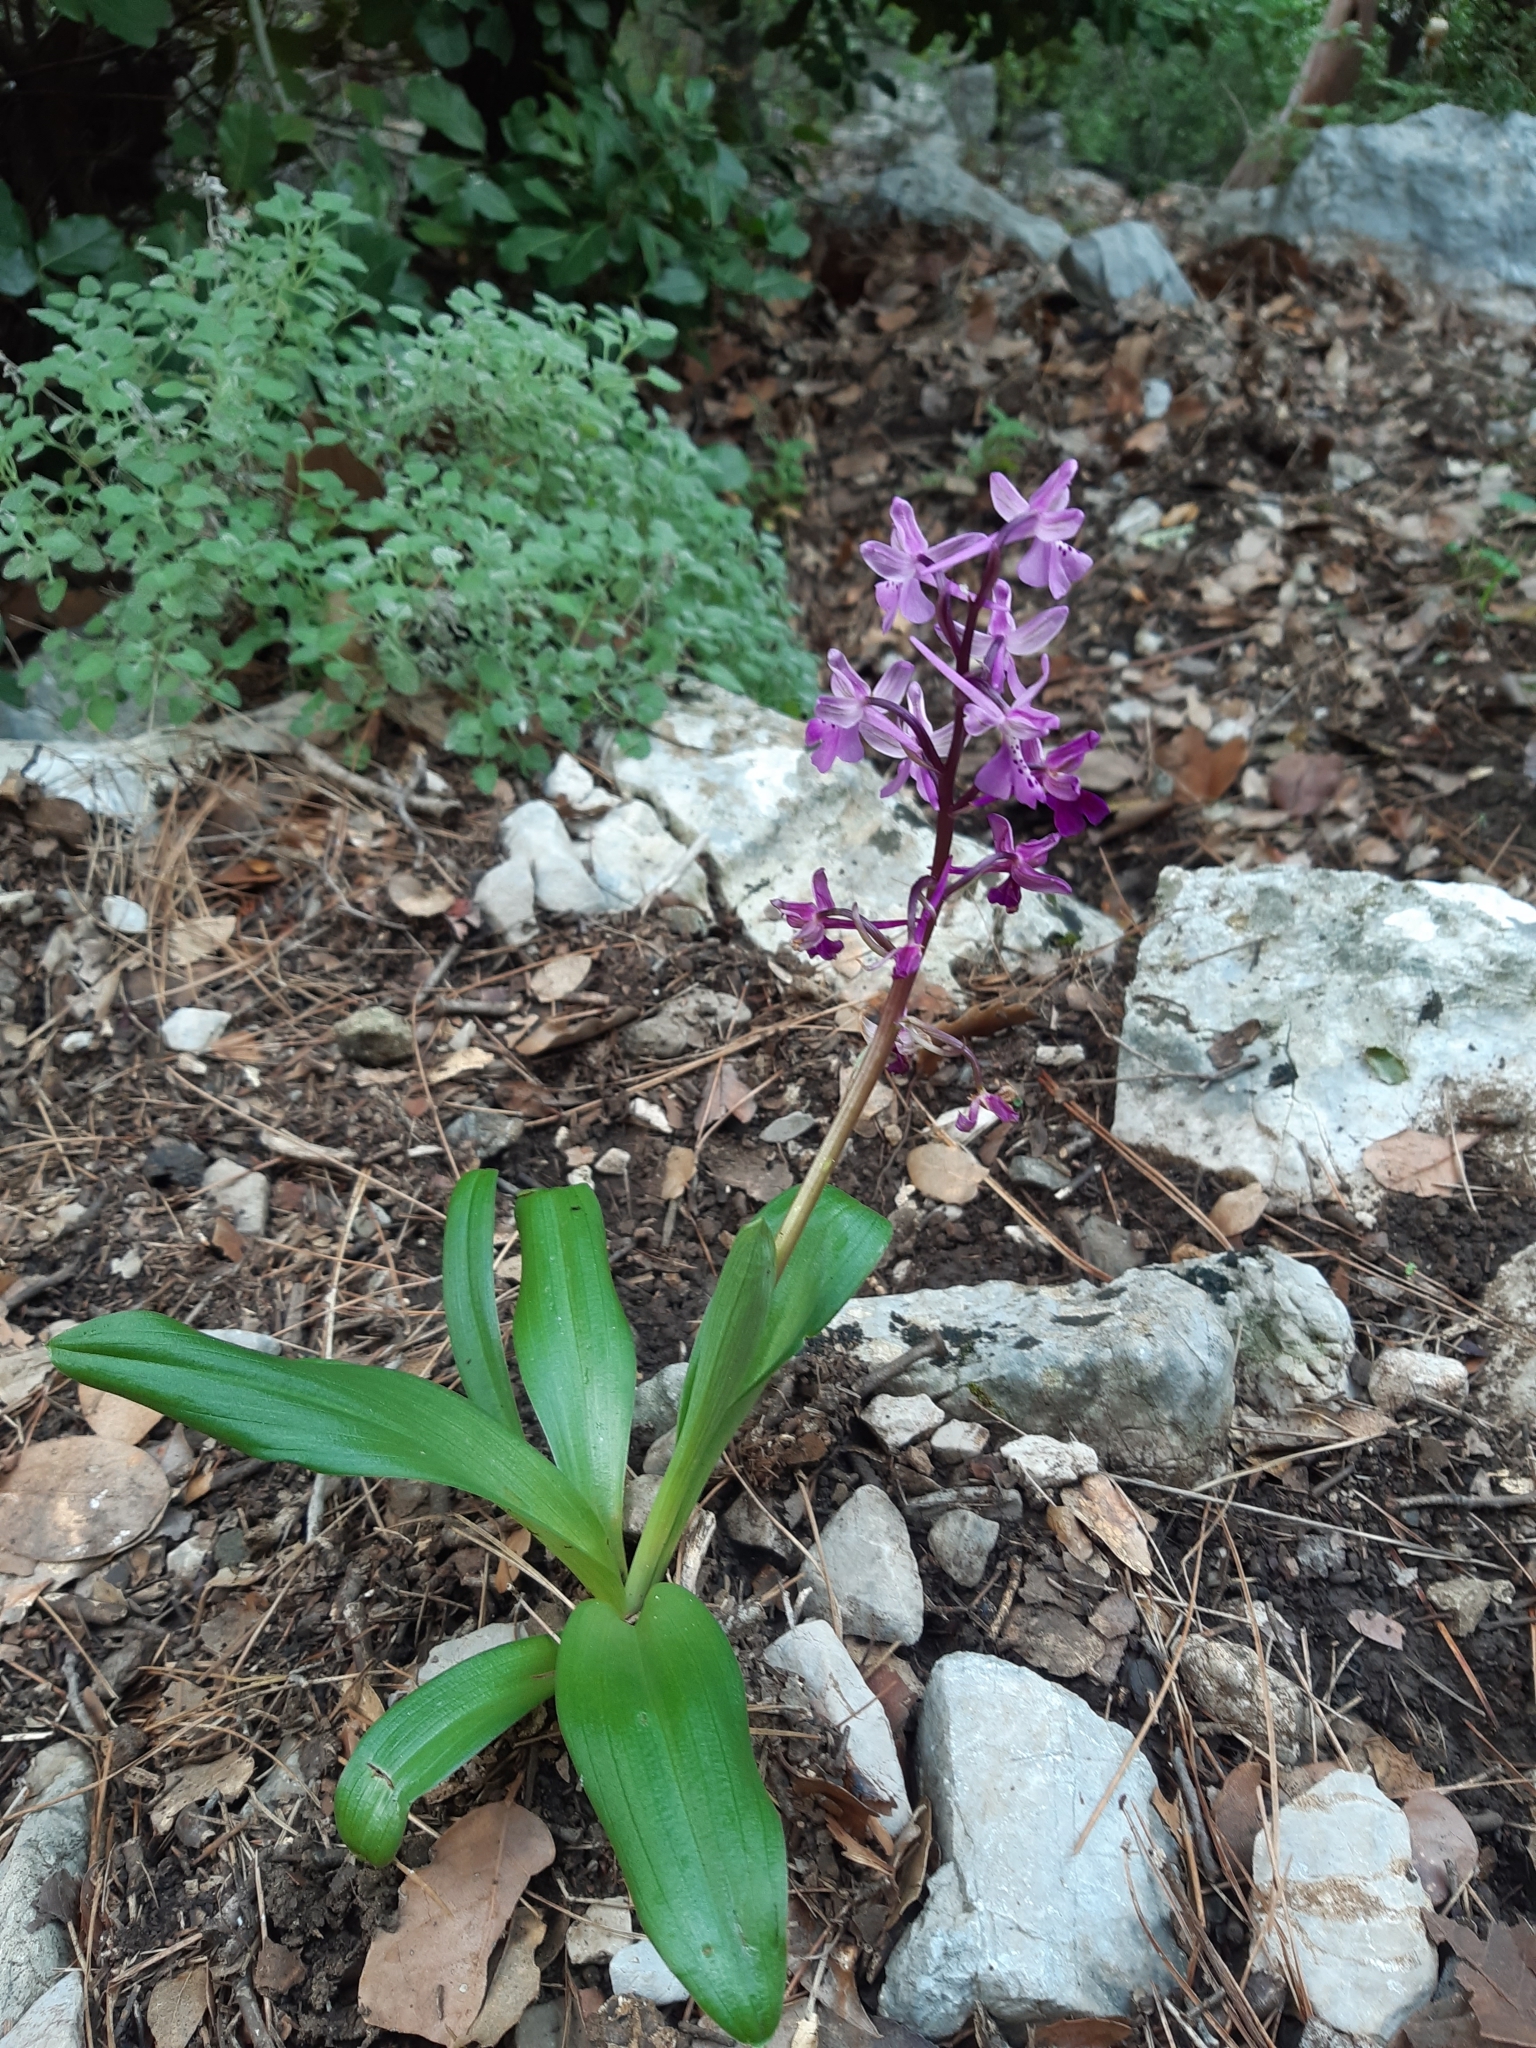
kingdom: Plantae
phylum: Tracheophyta
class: Liliopsida
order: Asparagales
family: Orchidaceae
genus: Orchis
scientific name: Orchis anatolica
